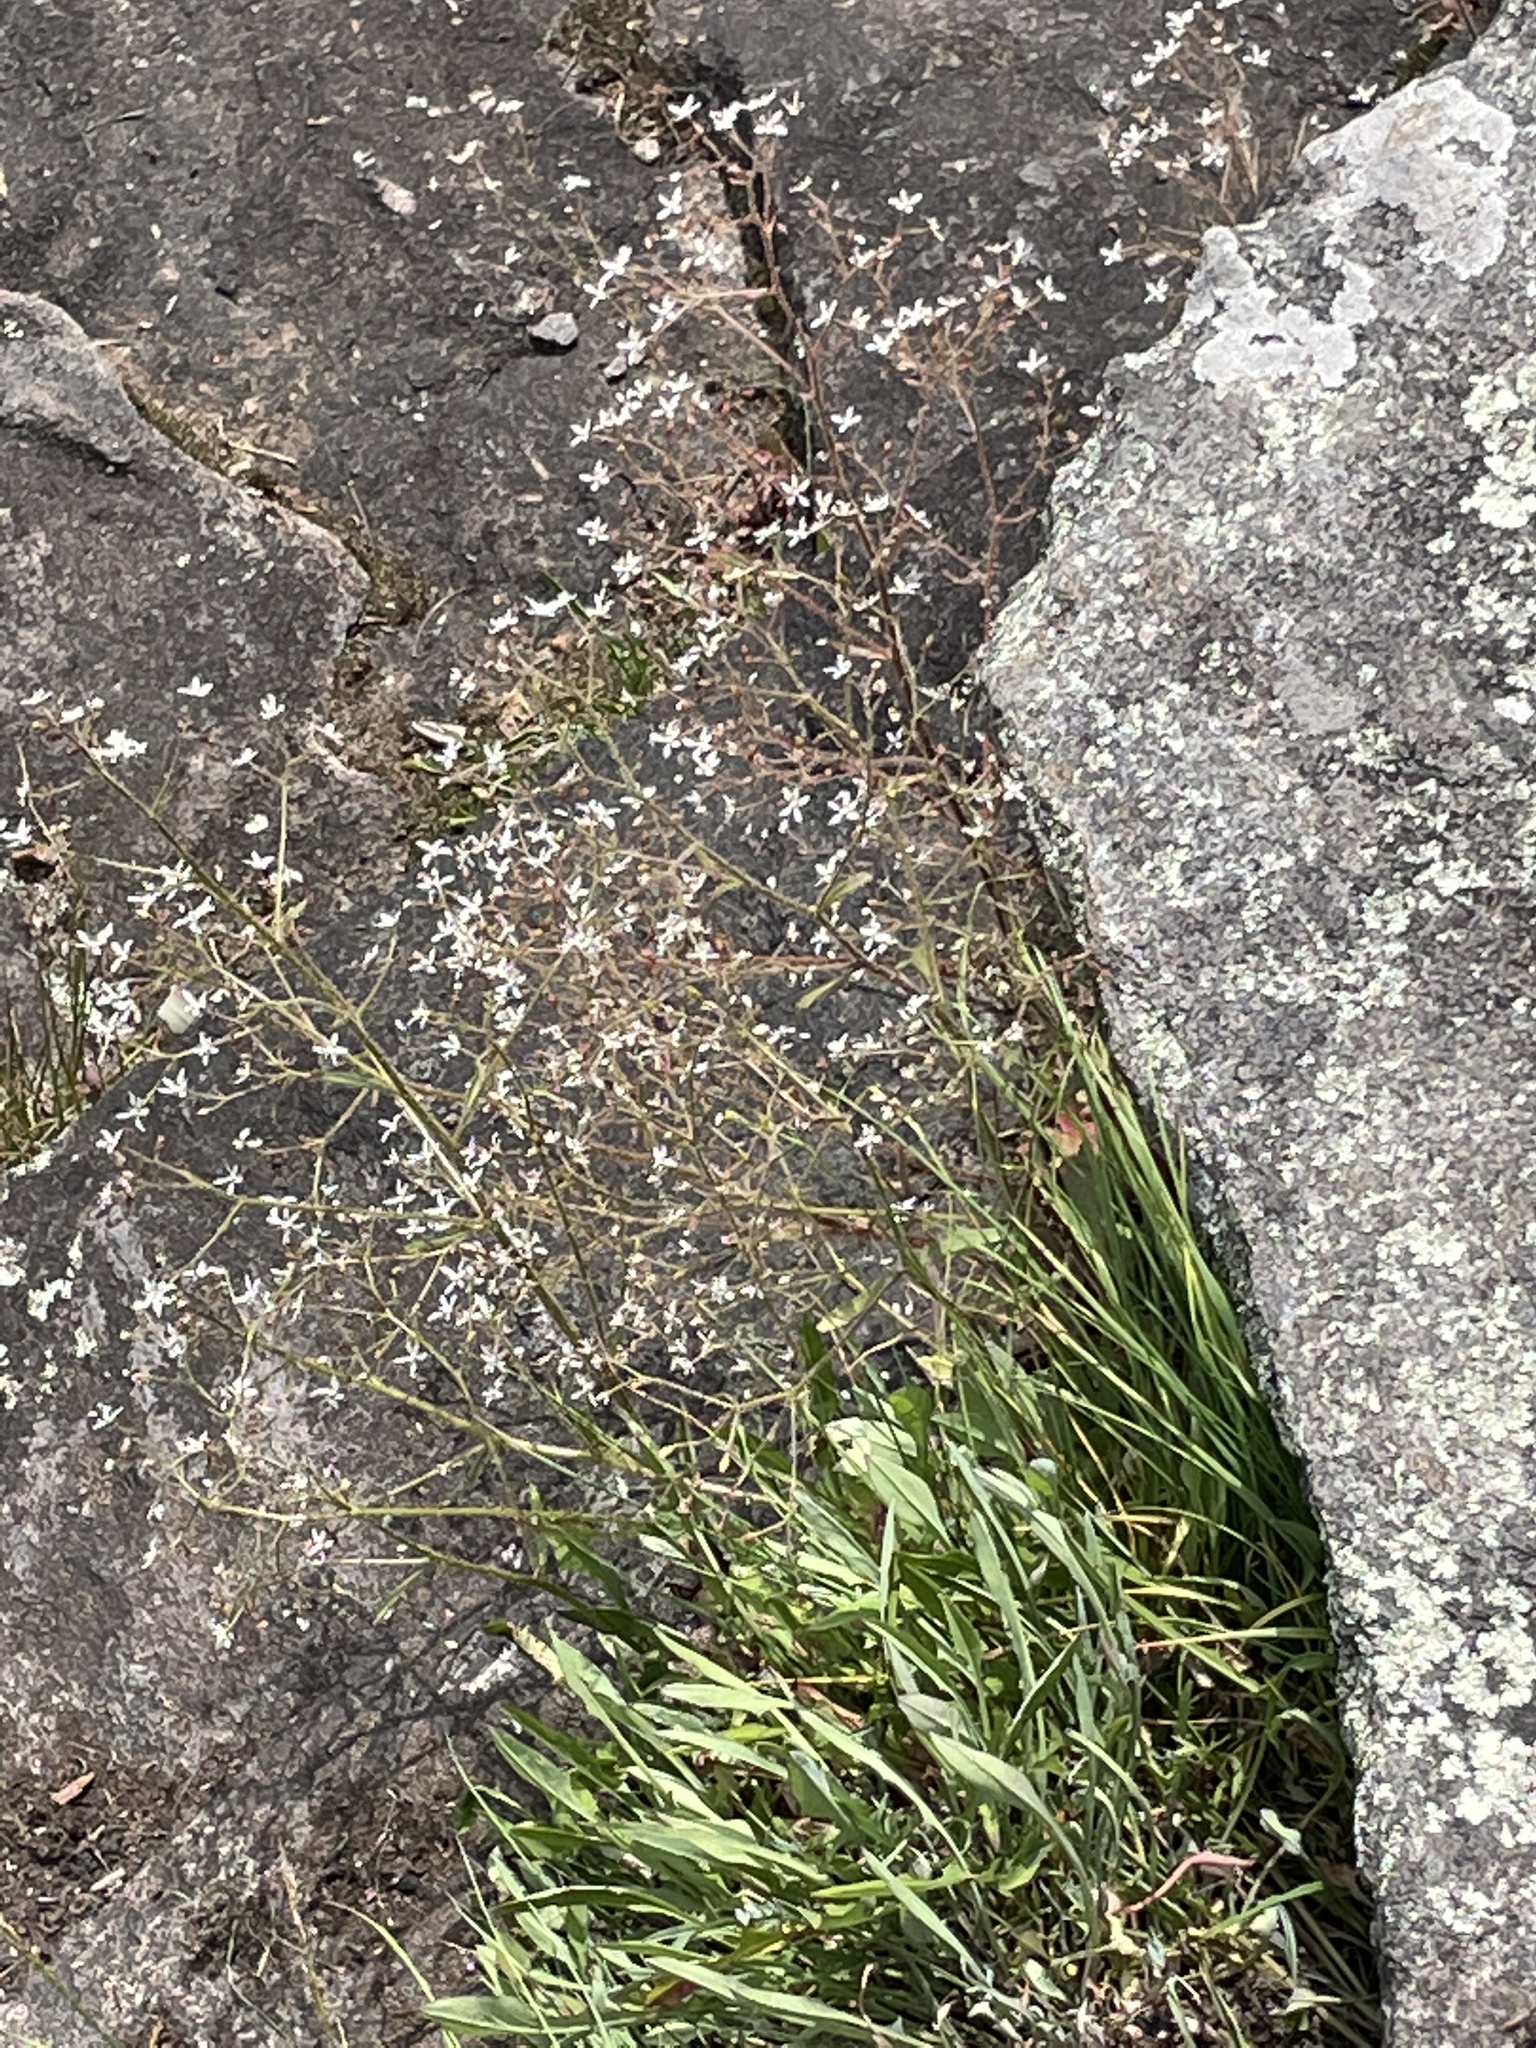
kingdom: Plantae
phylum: Tracheophyta
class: Magnoliopsida
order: Saxifragales
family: Saxifragaceae
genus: Micranthes
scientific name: Micranthes petiolaris
